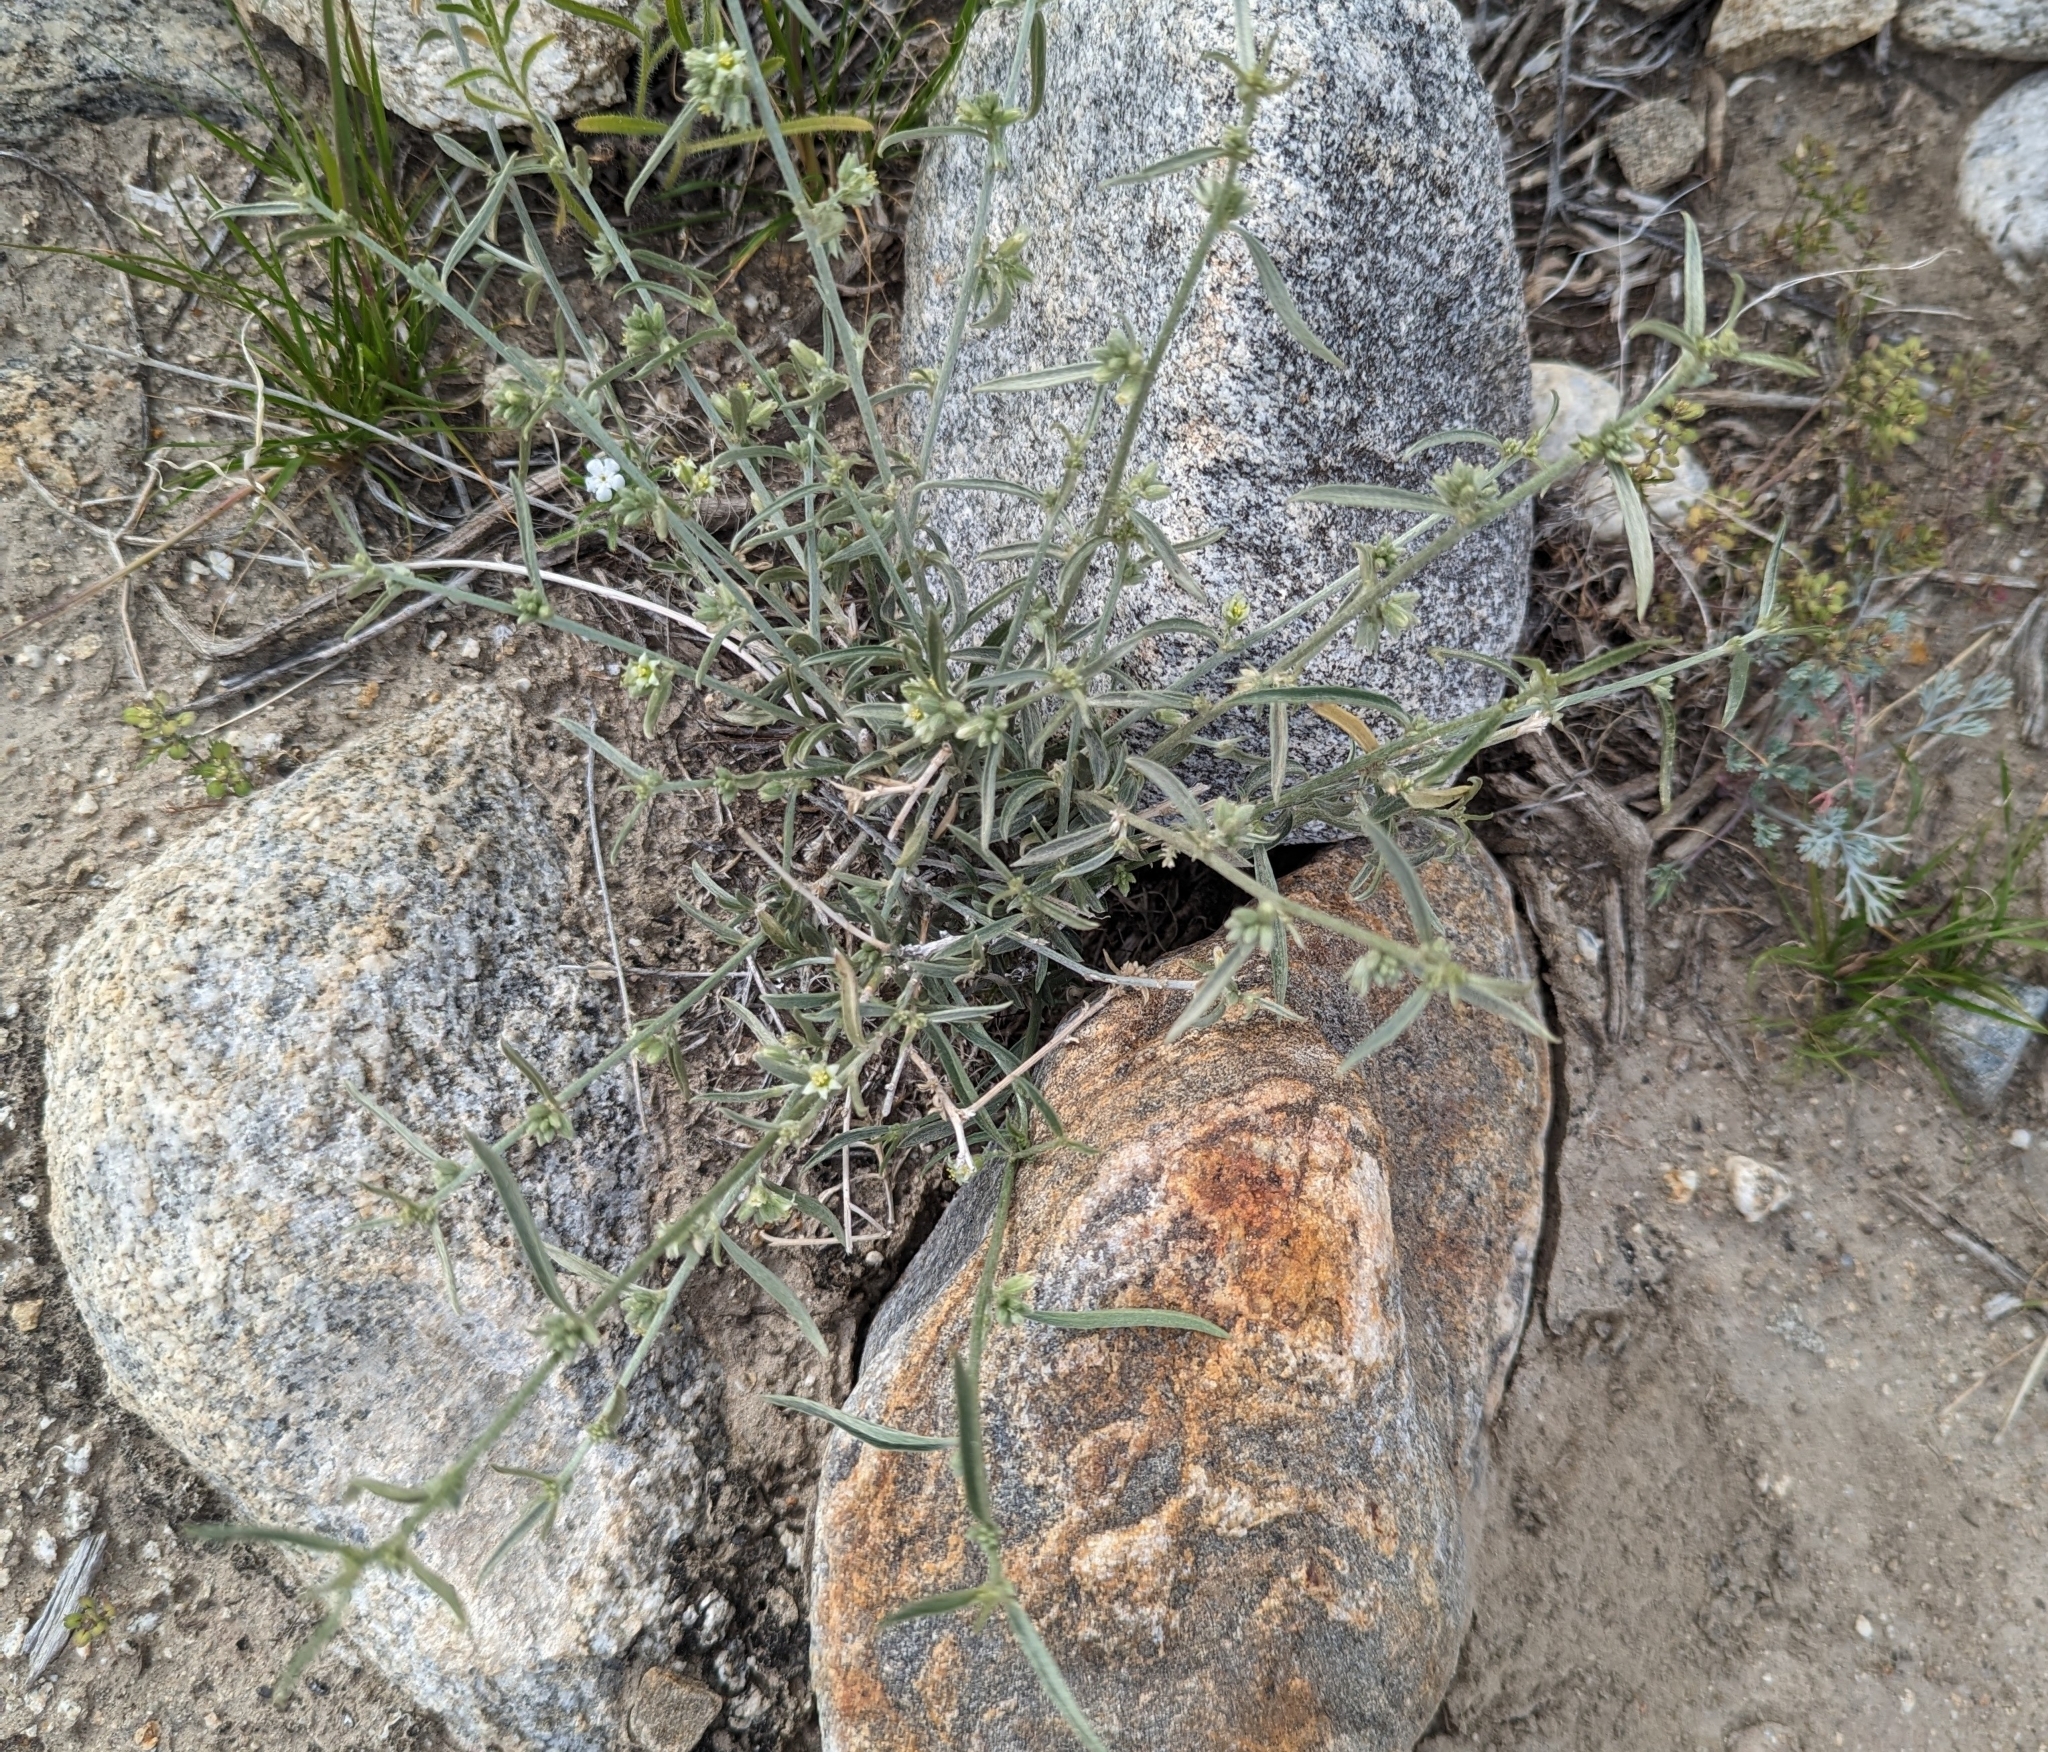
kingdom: Plantae
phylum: Tracheophyta
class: Magnoliopsida
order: Malpighiales
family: Euphorbiaceae
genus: Ditaxis
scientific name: Ditaxis lanceolata
